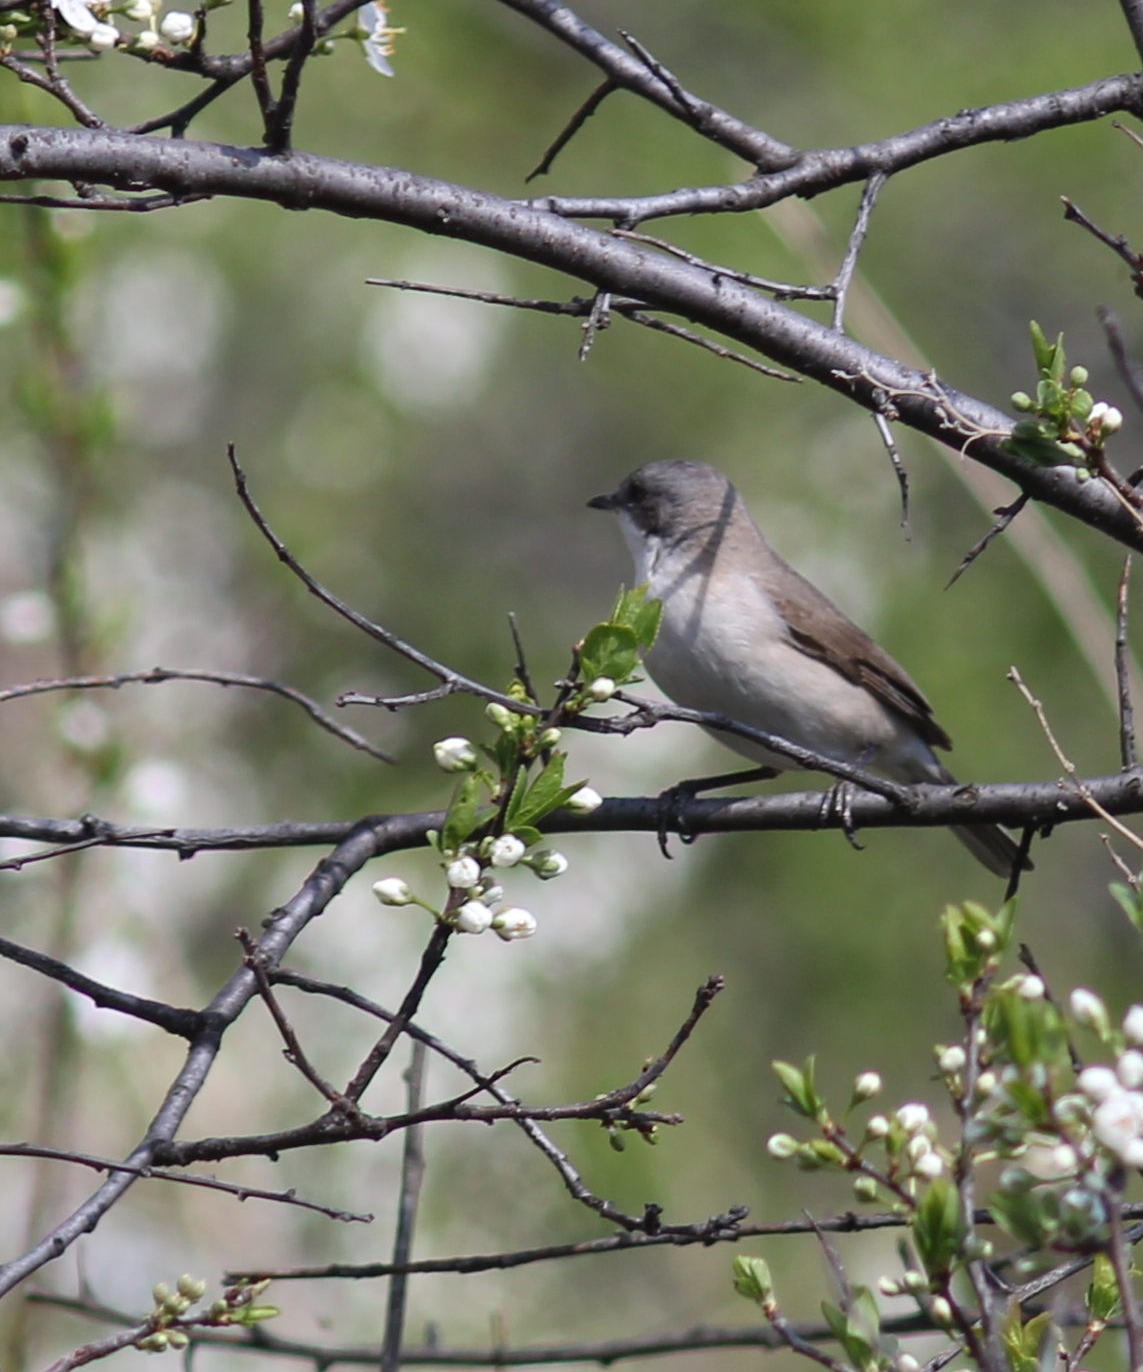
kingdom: Animalia
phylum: Chordata
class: Aves
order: Passeriformes
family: Sylviidae
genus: Sylvia
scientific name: Sylvia curruca
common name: Lesser whitethroat
